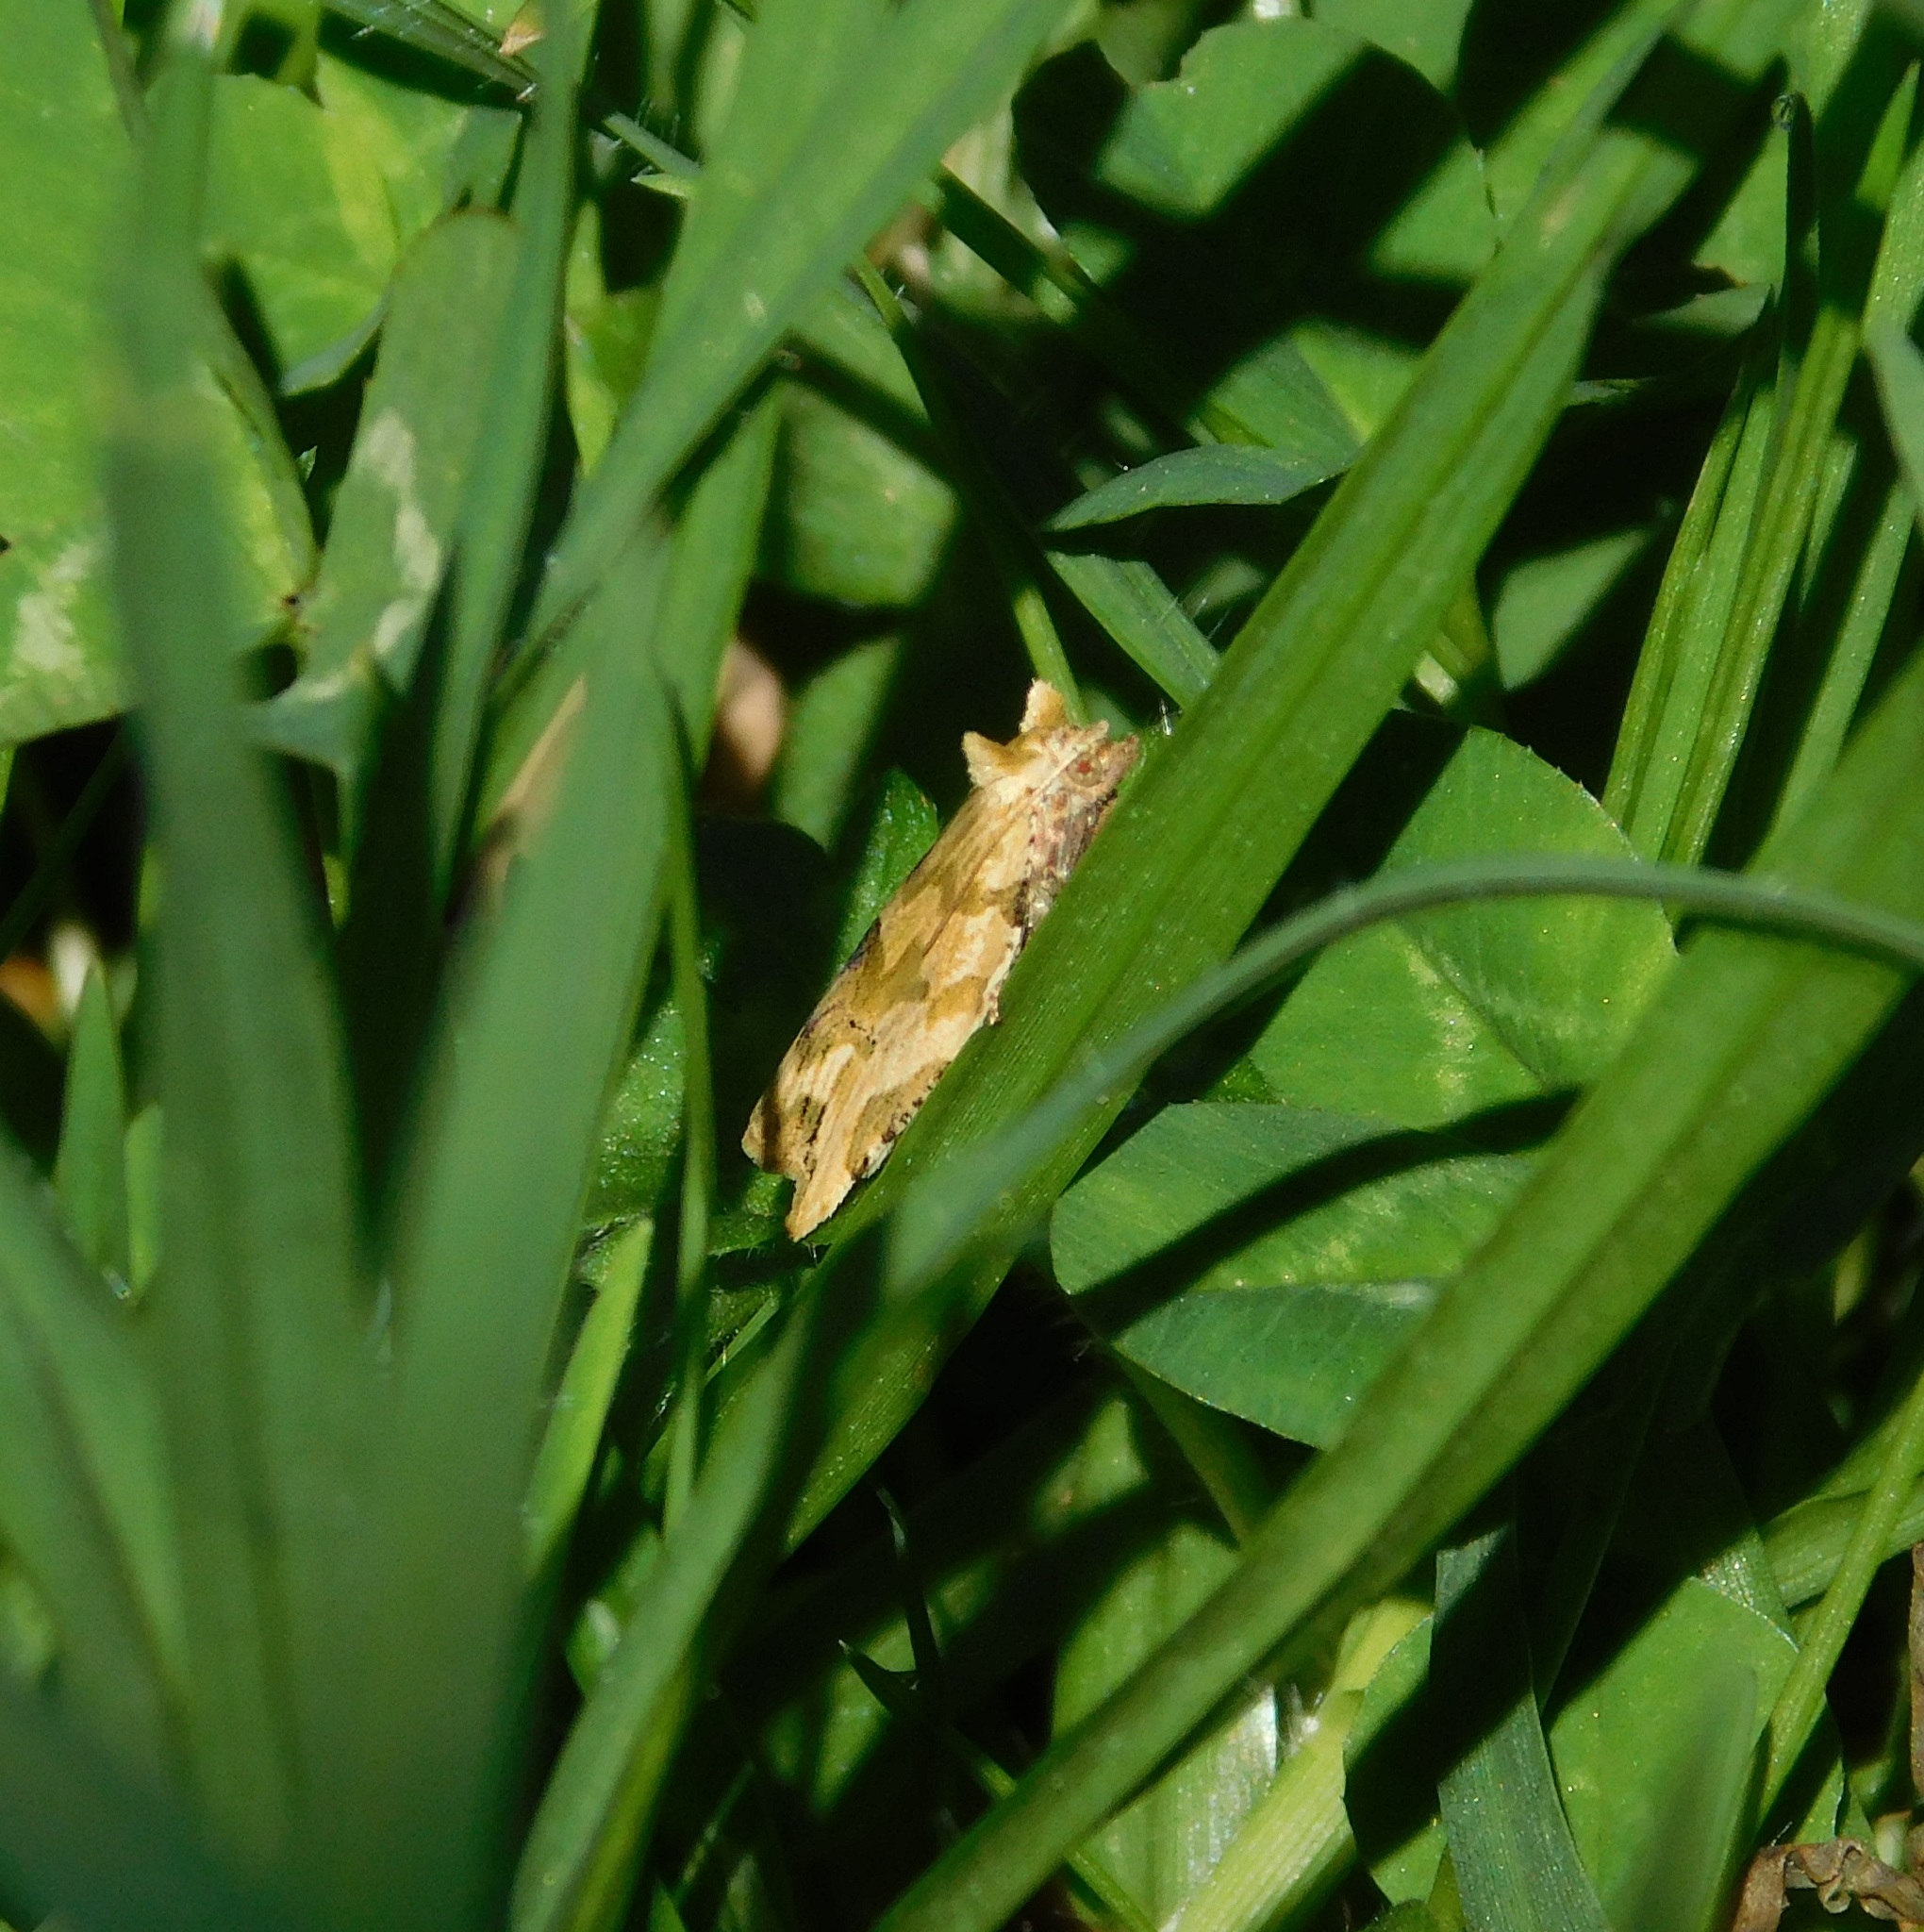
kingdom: Animalia
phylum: Arthropoda
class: Insecta
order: Lepidoptera
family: Tortricidae
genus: Epalxiphora
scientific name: Epalxiphora axenana
